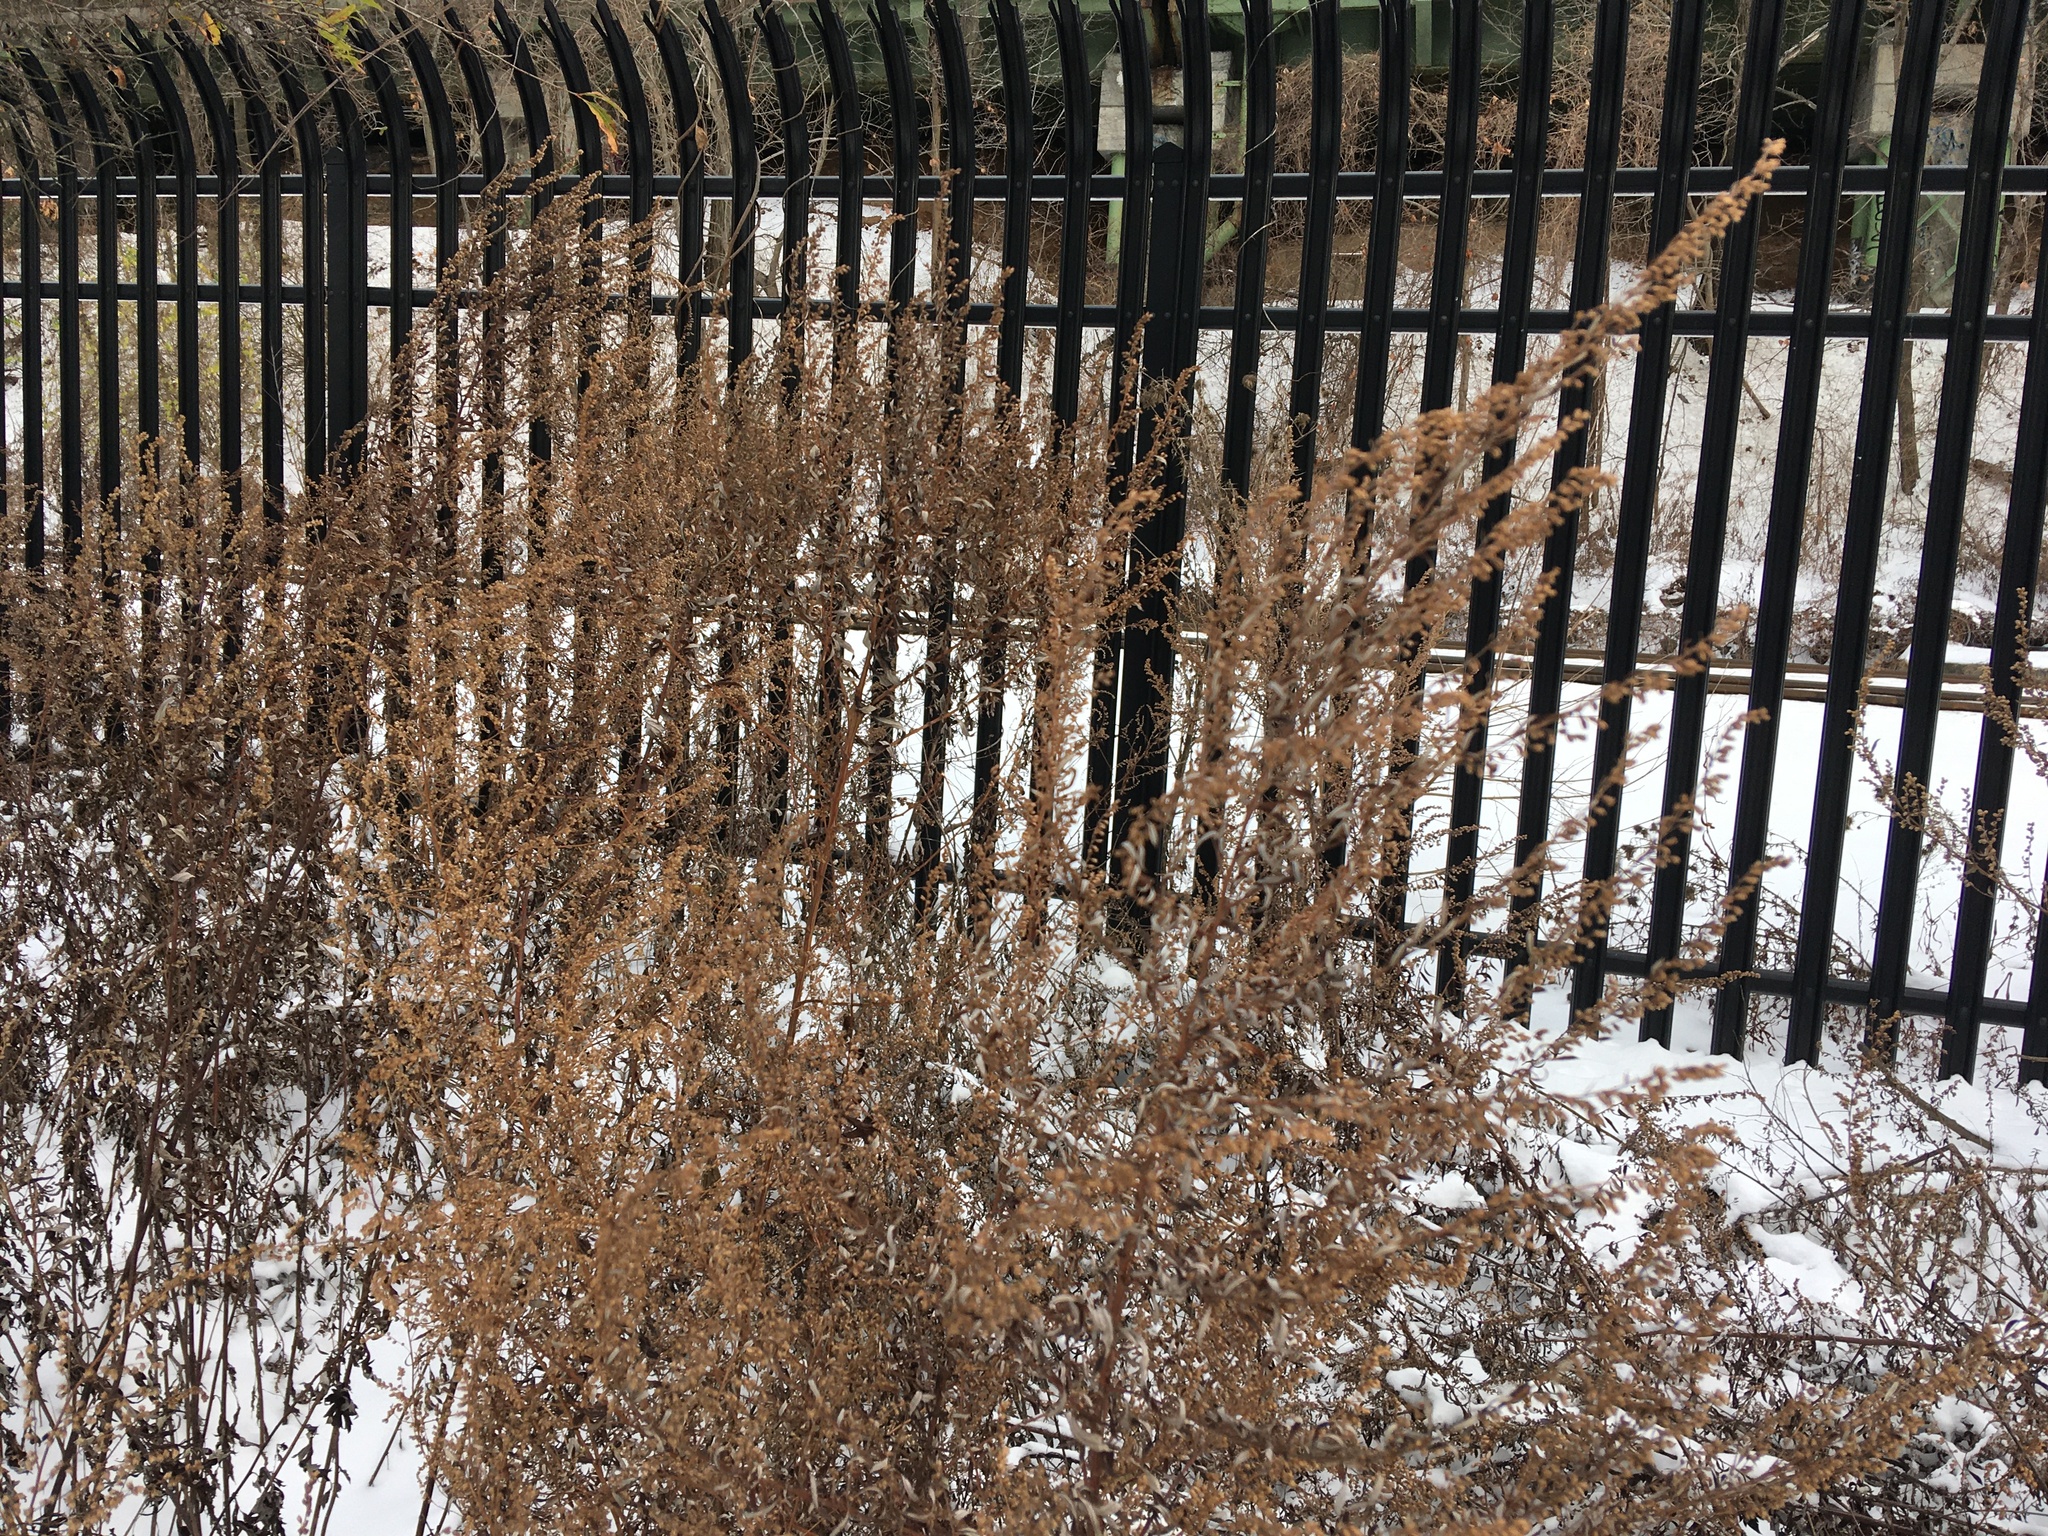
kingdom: Plantae
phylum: Tracheophyta
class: Magnoliopsida
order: Asterales
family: Asteraceae
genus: Artemisia
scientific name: Artemisia vulgaris
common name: Mugwort
